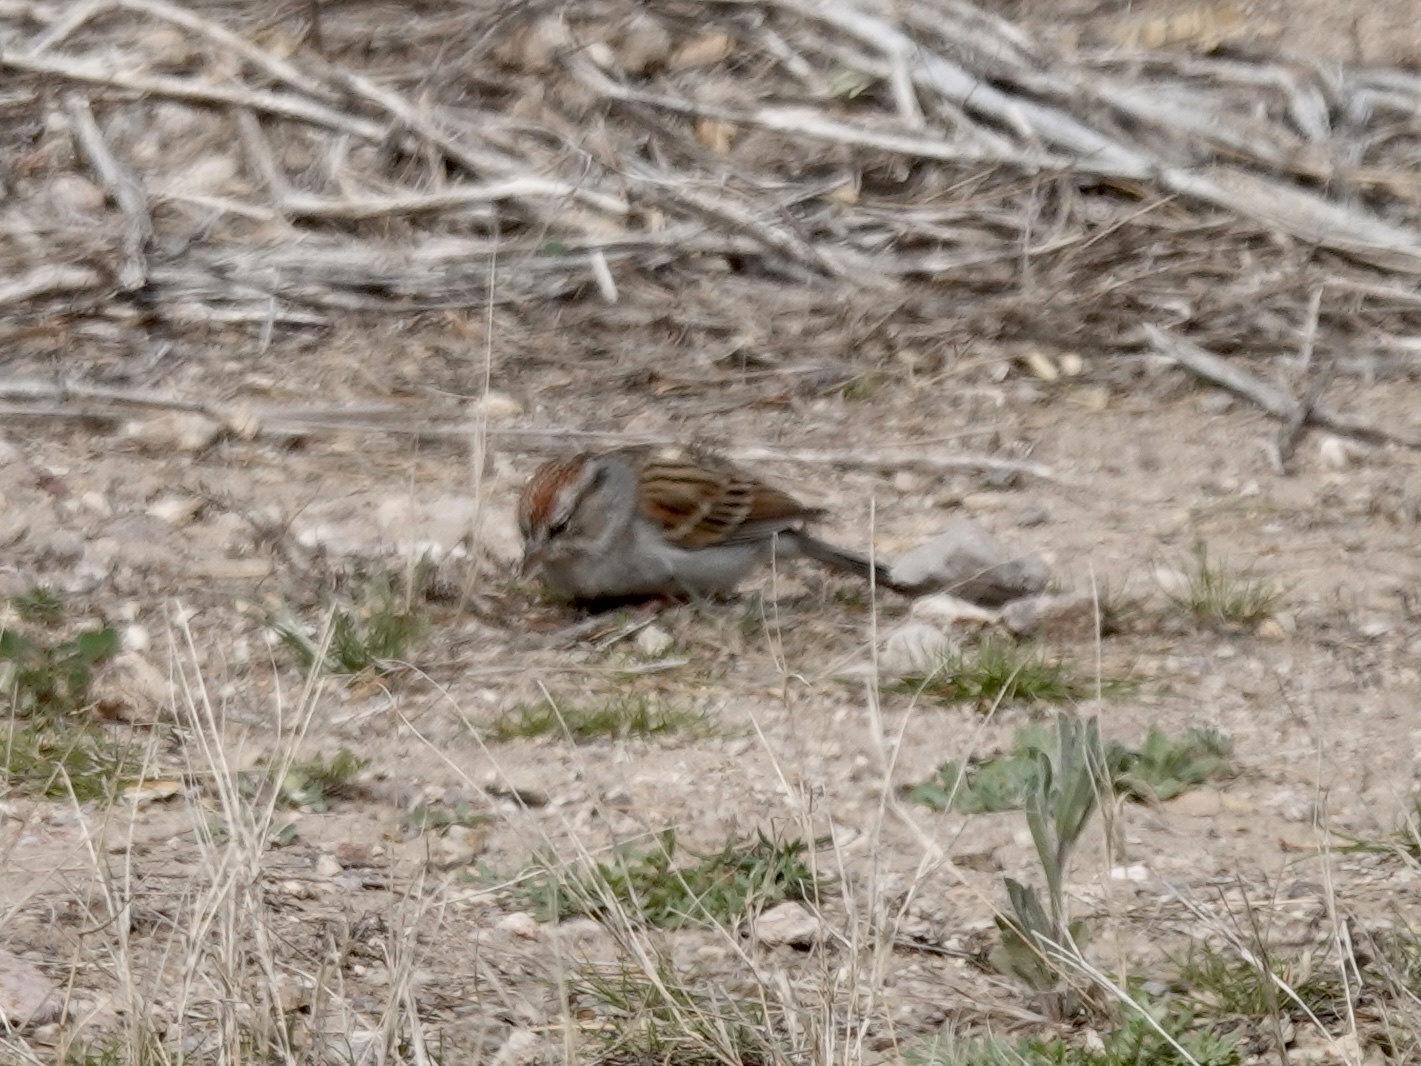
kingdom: Animalia
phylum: Chordata
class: Aves
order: Passeriformes
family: Passerellidae
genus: Spizella
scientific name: Spizella passerina
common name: Chipping sparrow
